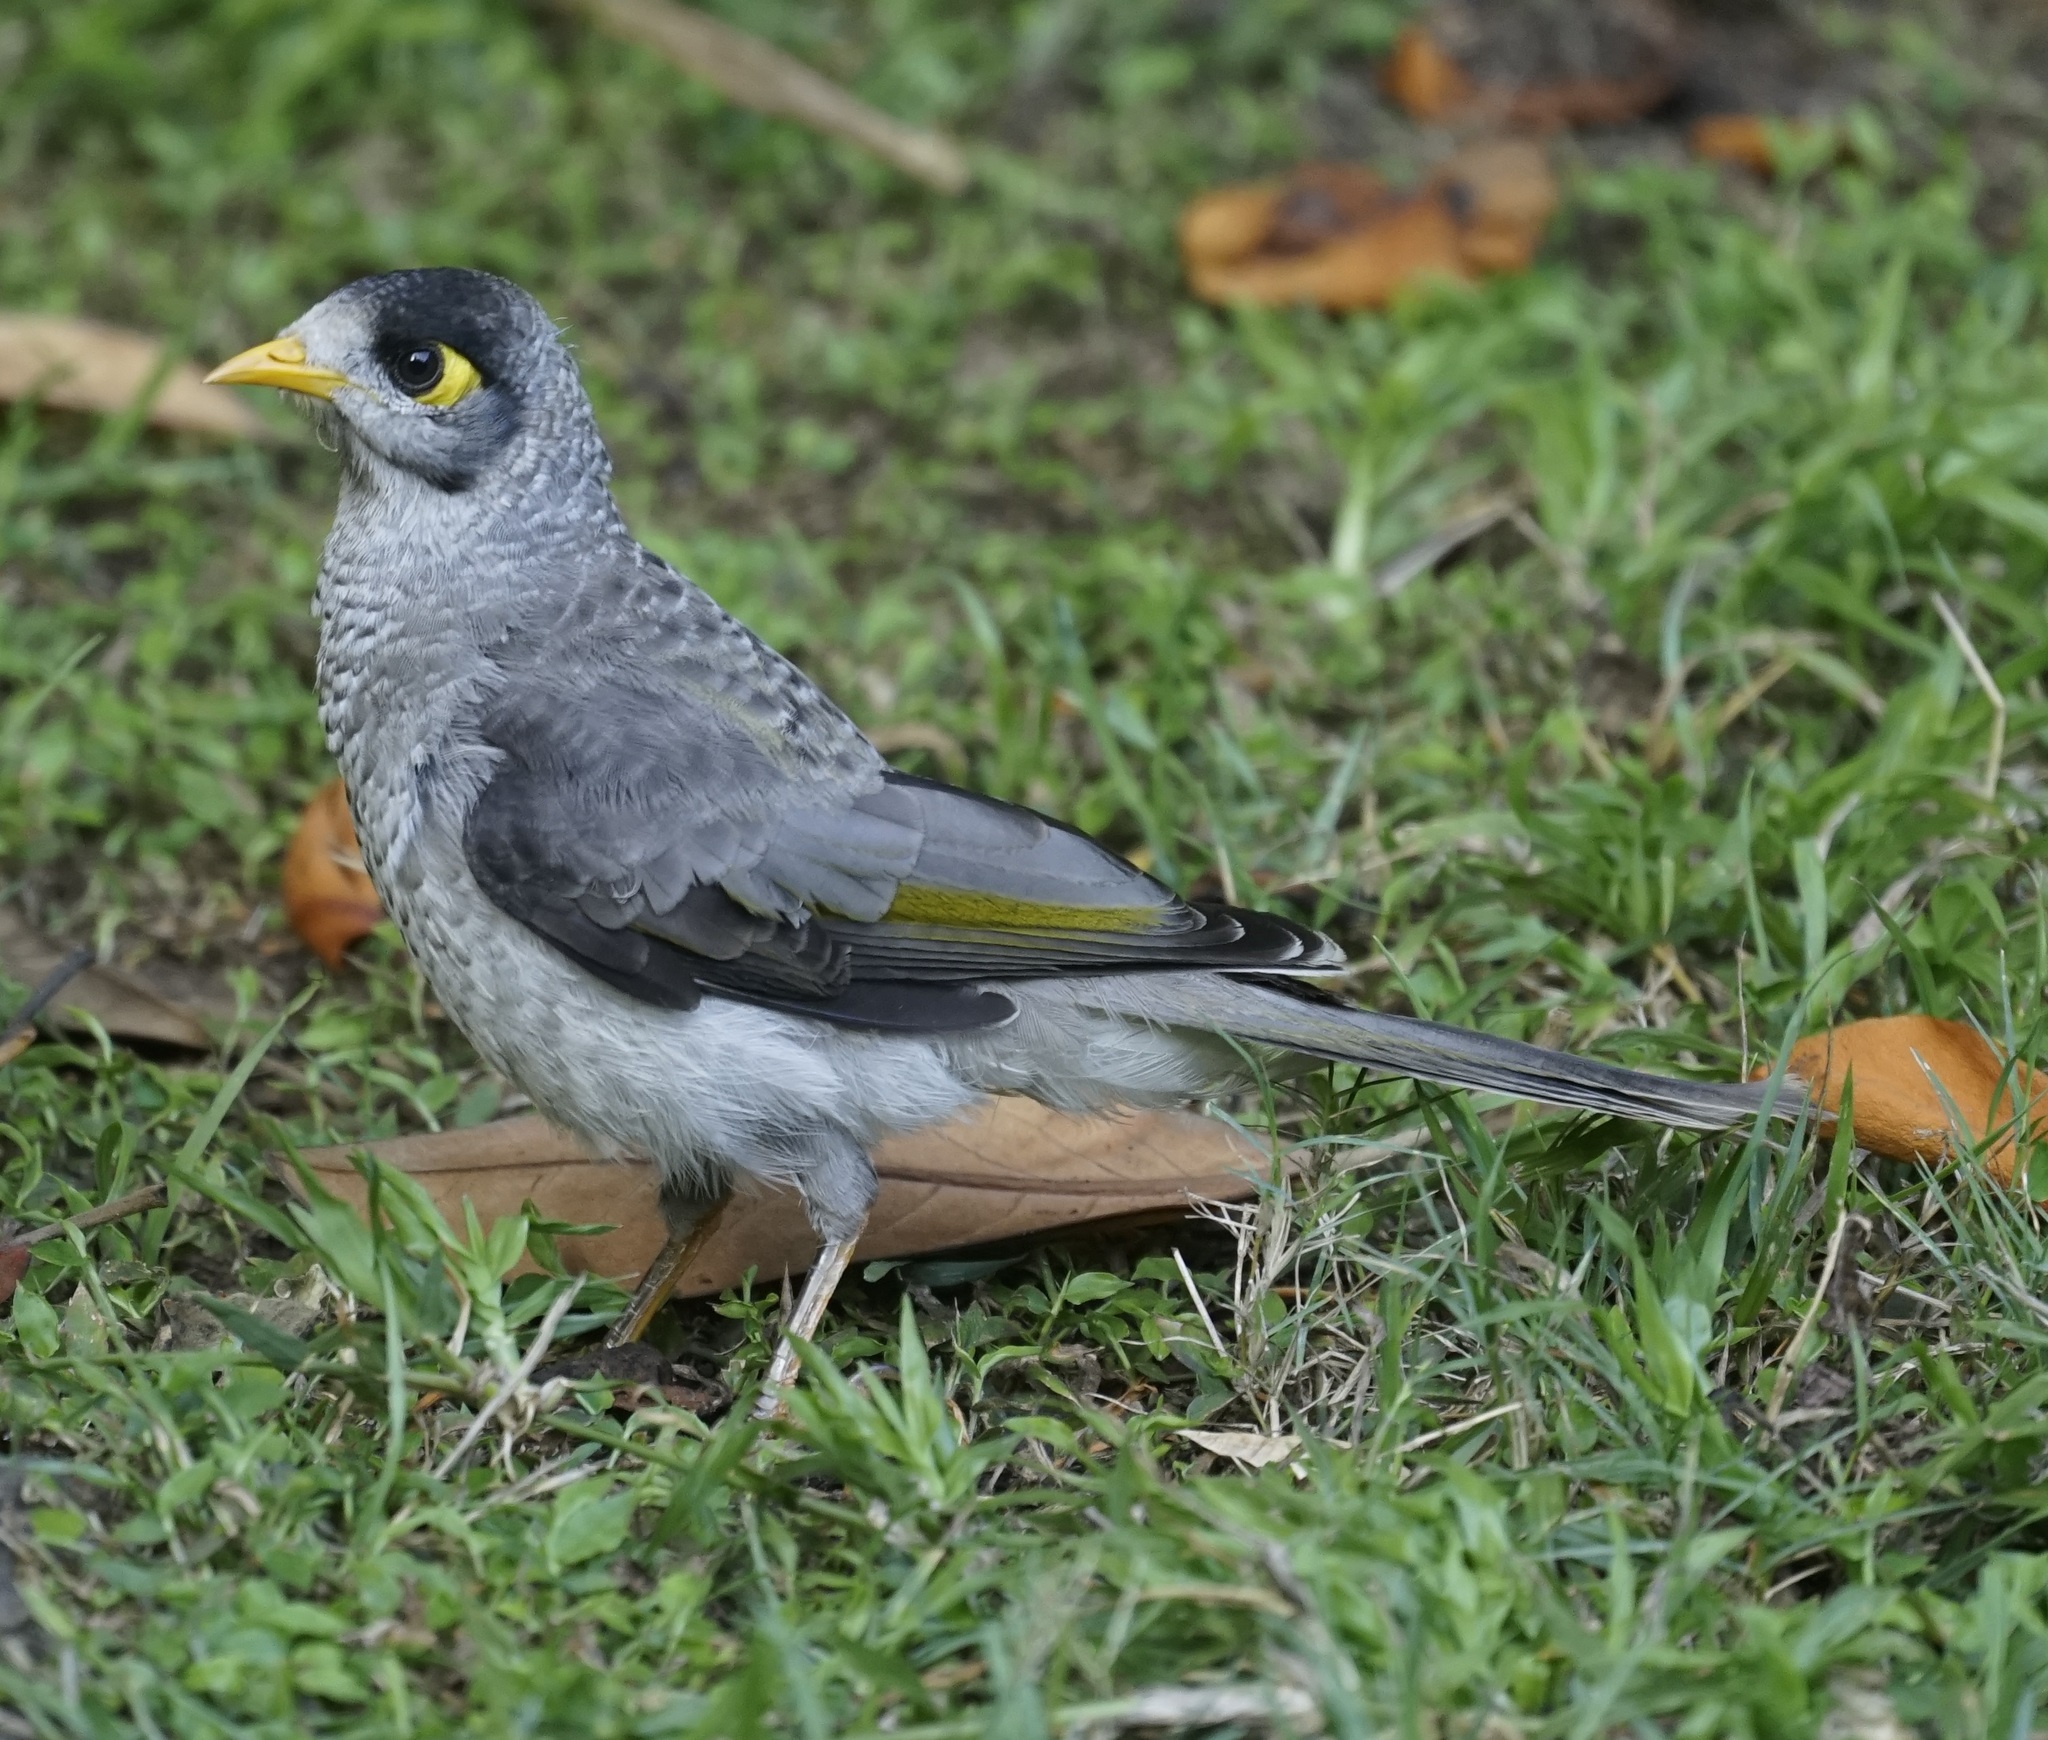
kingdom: Animalia
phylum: Chordata
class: Aves
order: Passeriformes
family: Meliphagidae
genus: Manorina
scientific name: Manorina melanocephala
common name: Noisy miner
